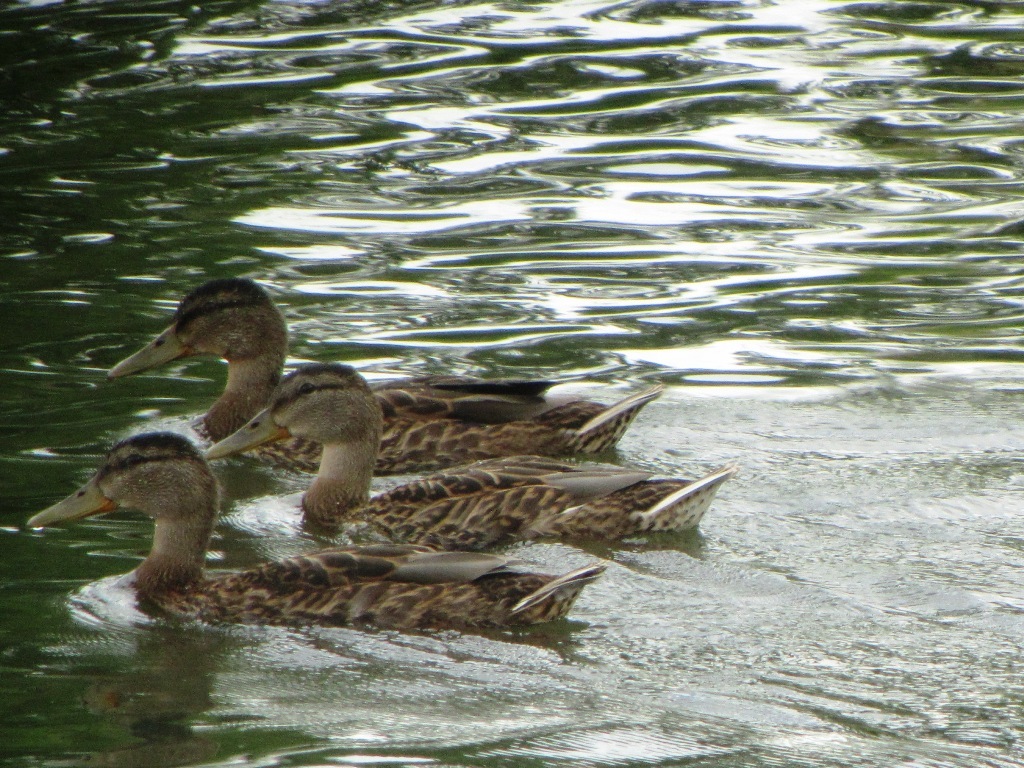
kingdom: Animalia
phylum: Chordata
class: Aves
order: Anseriformes
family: Anatidae
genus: Anas
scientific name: Anas platyrhynchos
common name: Mallard
